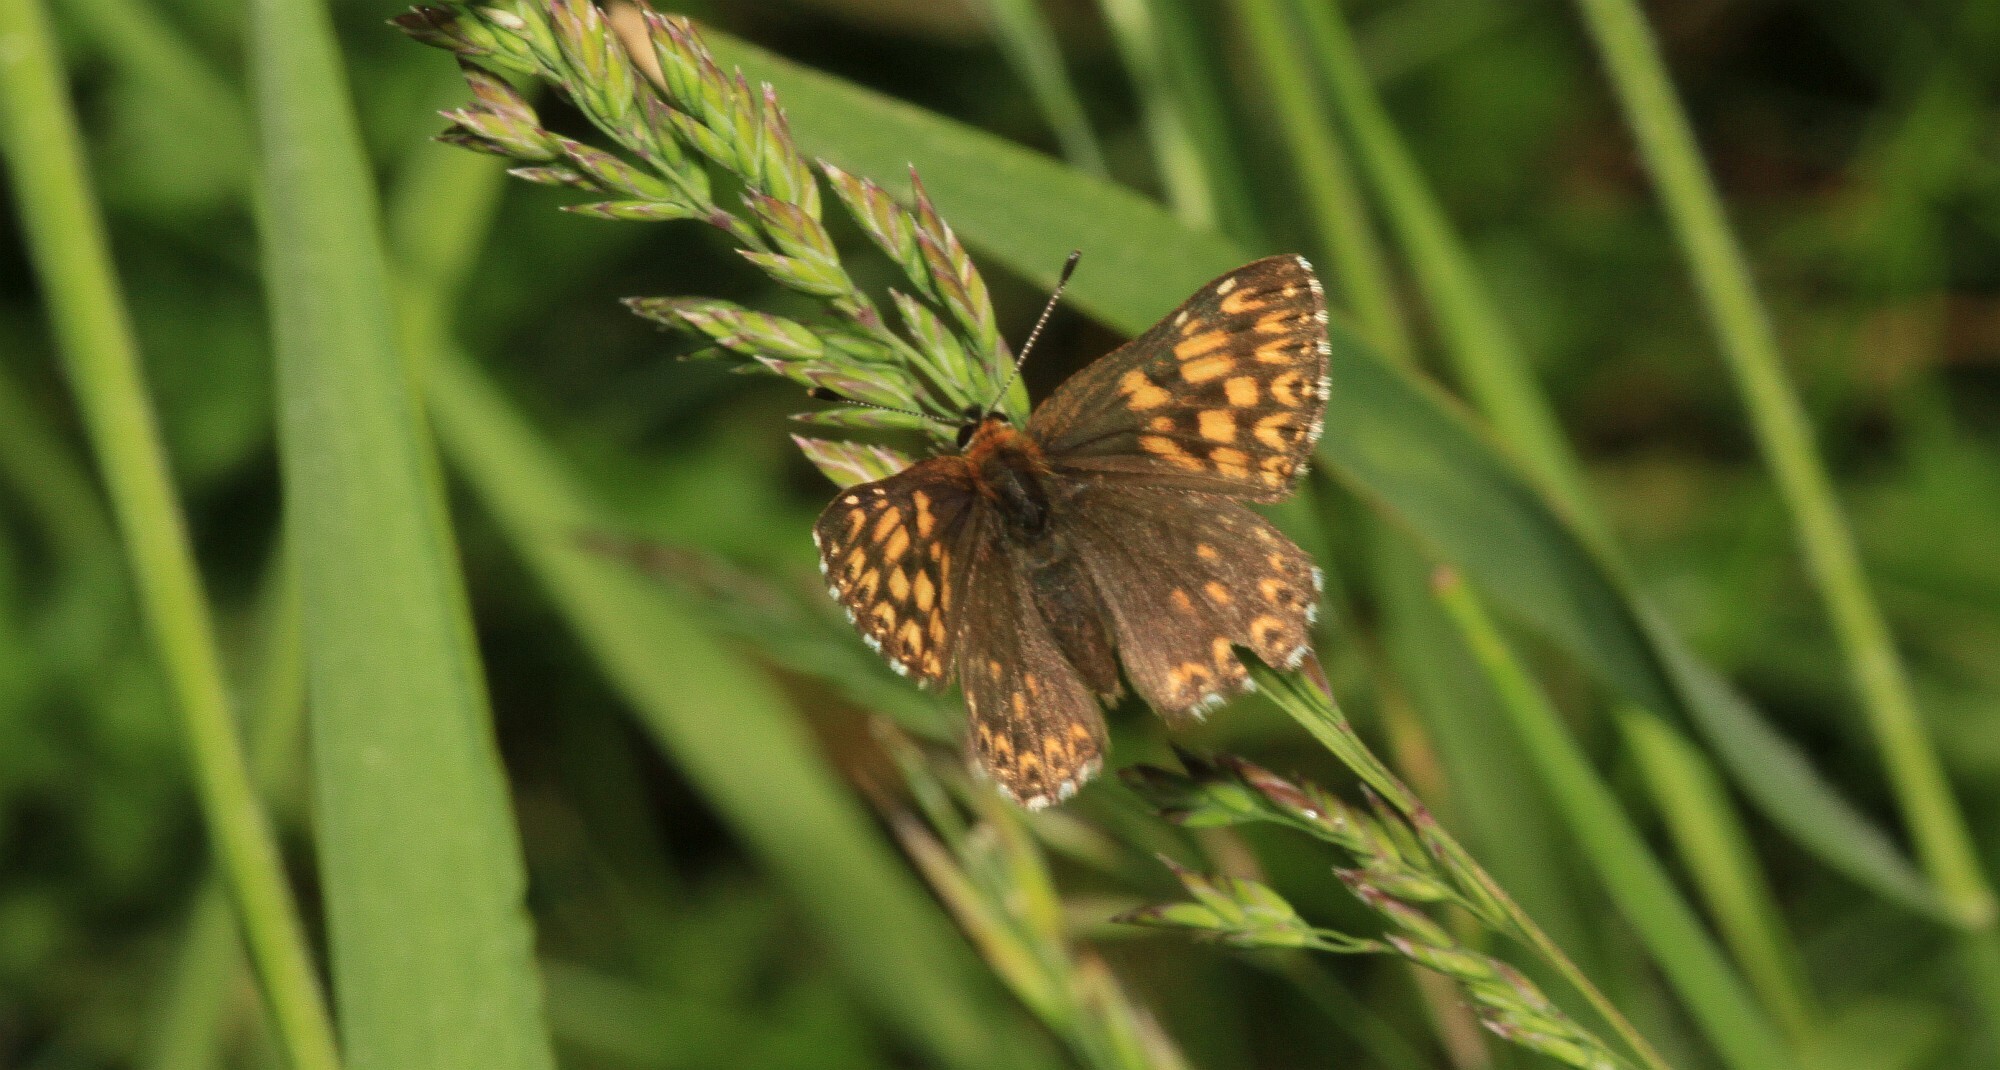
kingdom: Animalia
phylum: Arthropoda
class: Insecta
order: Lepidoptera
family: Riodinidae
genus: Hamearis
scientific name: Hamearis lucina
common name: Duke of burgundy fritillary
